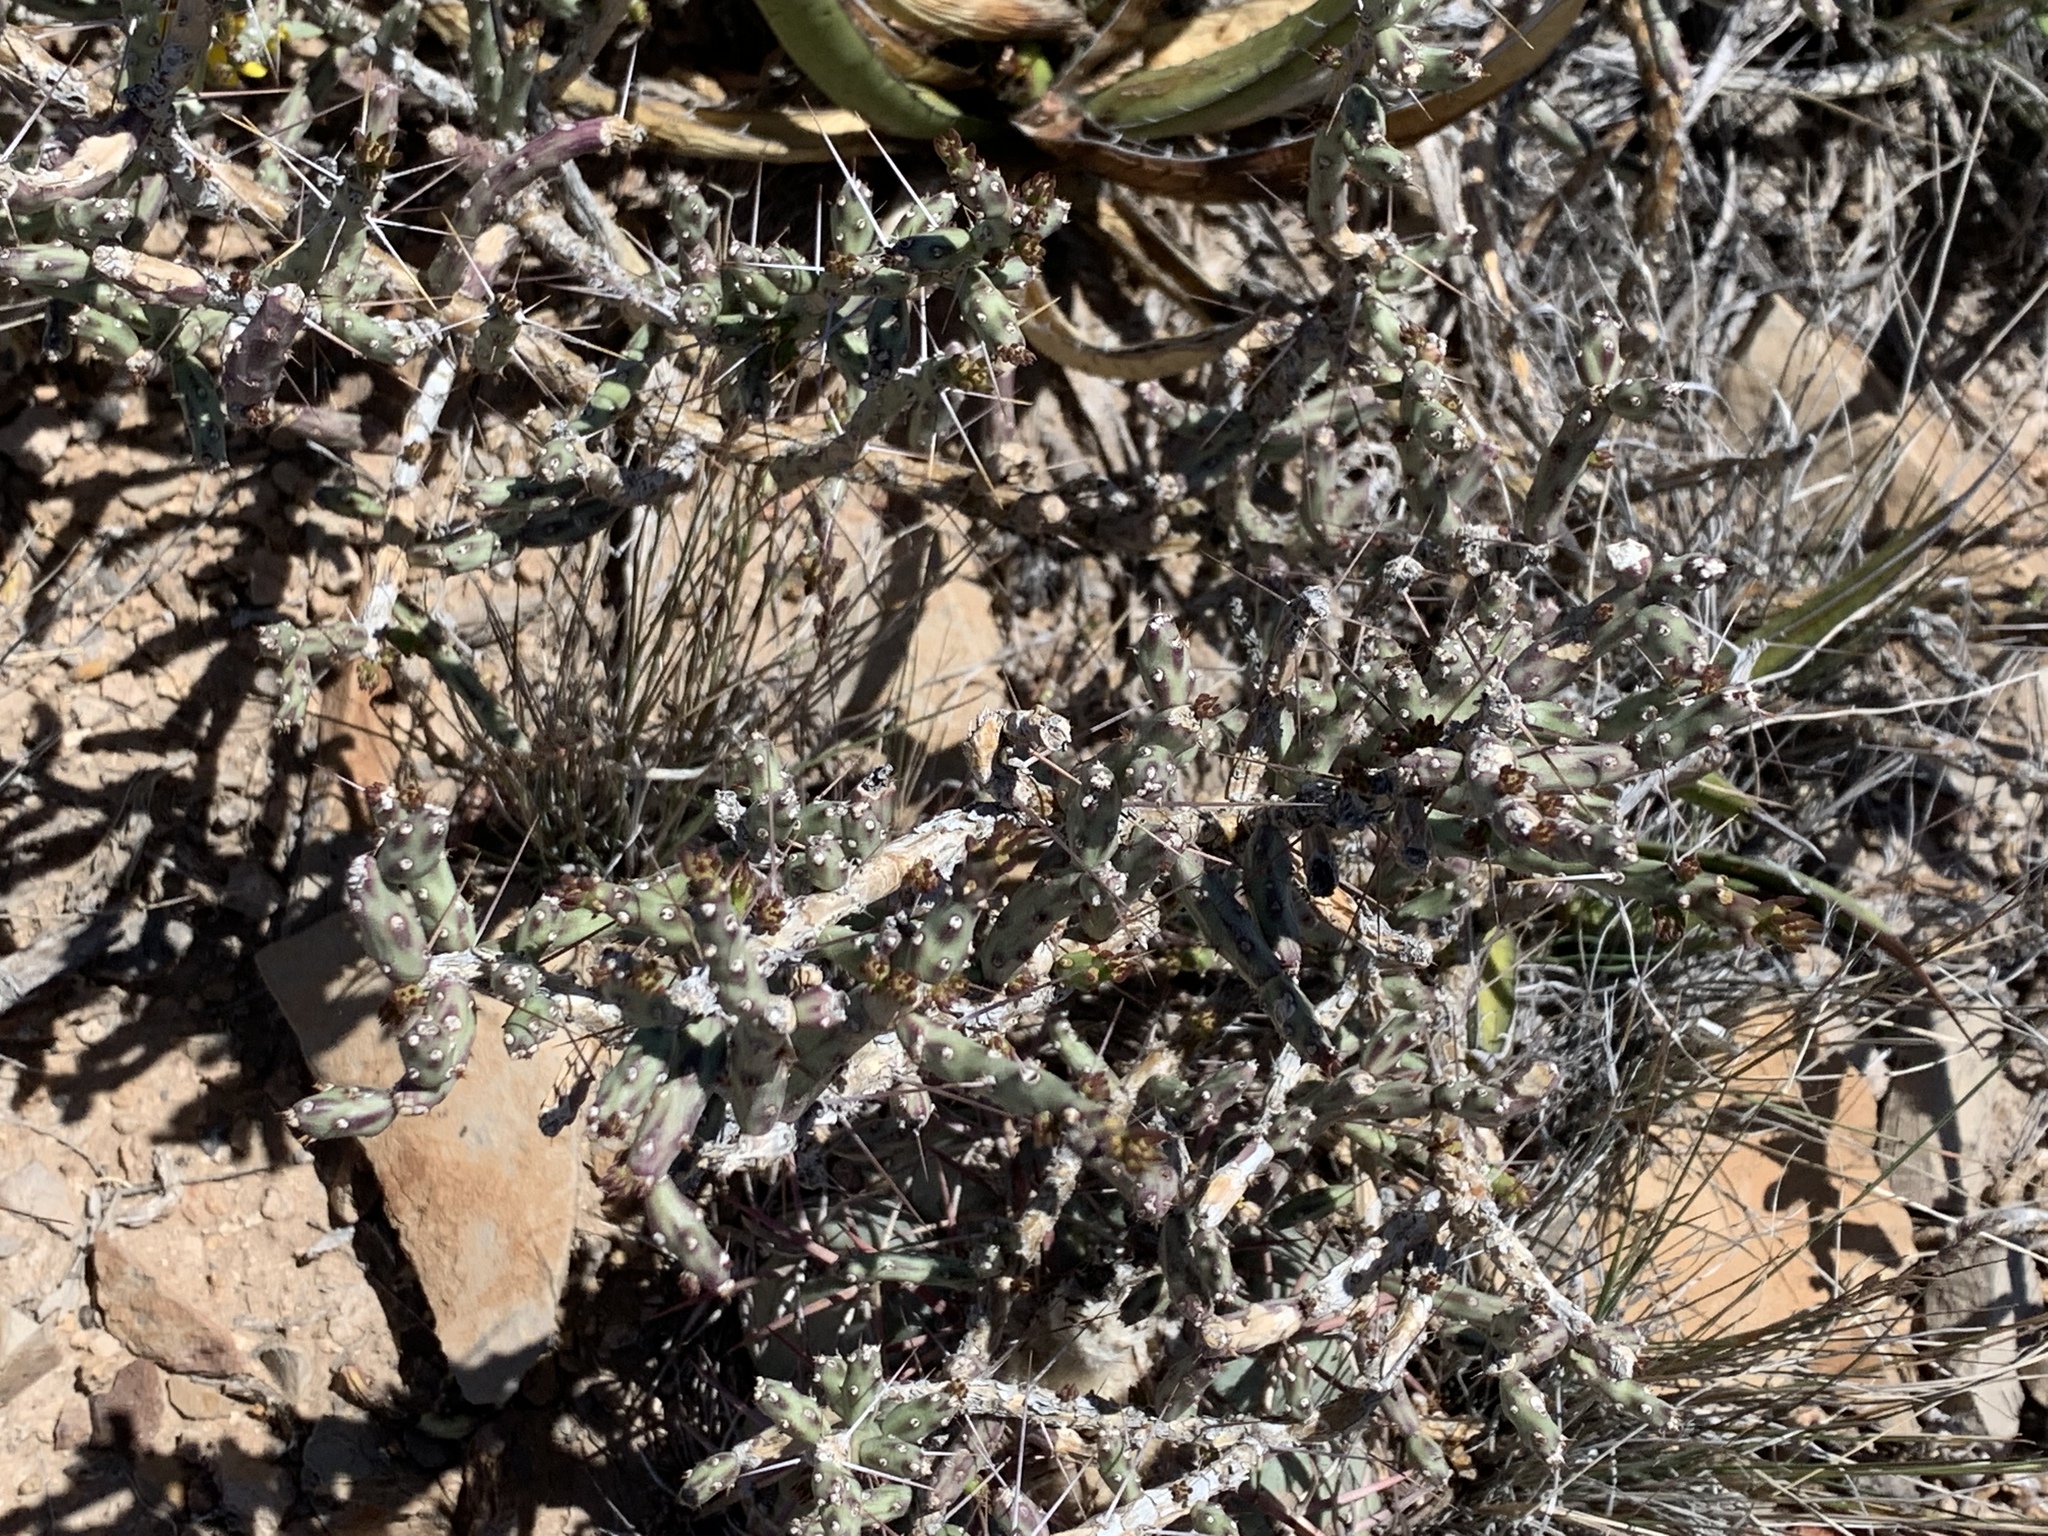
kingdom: Plantae
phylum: Tracheophyta
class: Magnoliopsida
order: Caryophyllales
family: Cactaceae
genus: Cylindropuntia
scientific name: Cylindropuntia leptocaulis
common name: Christmas cactus
